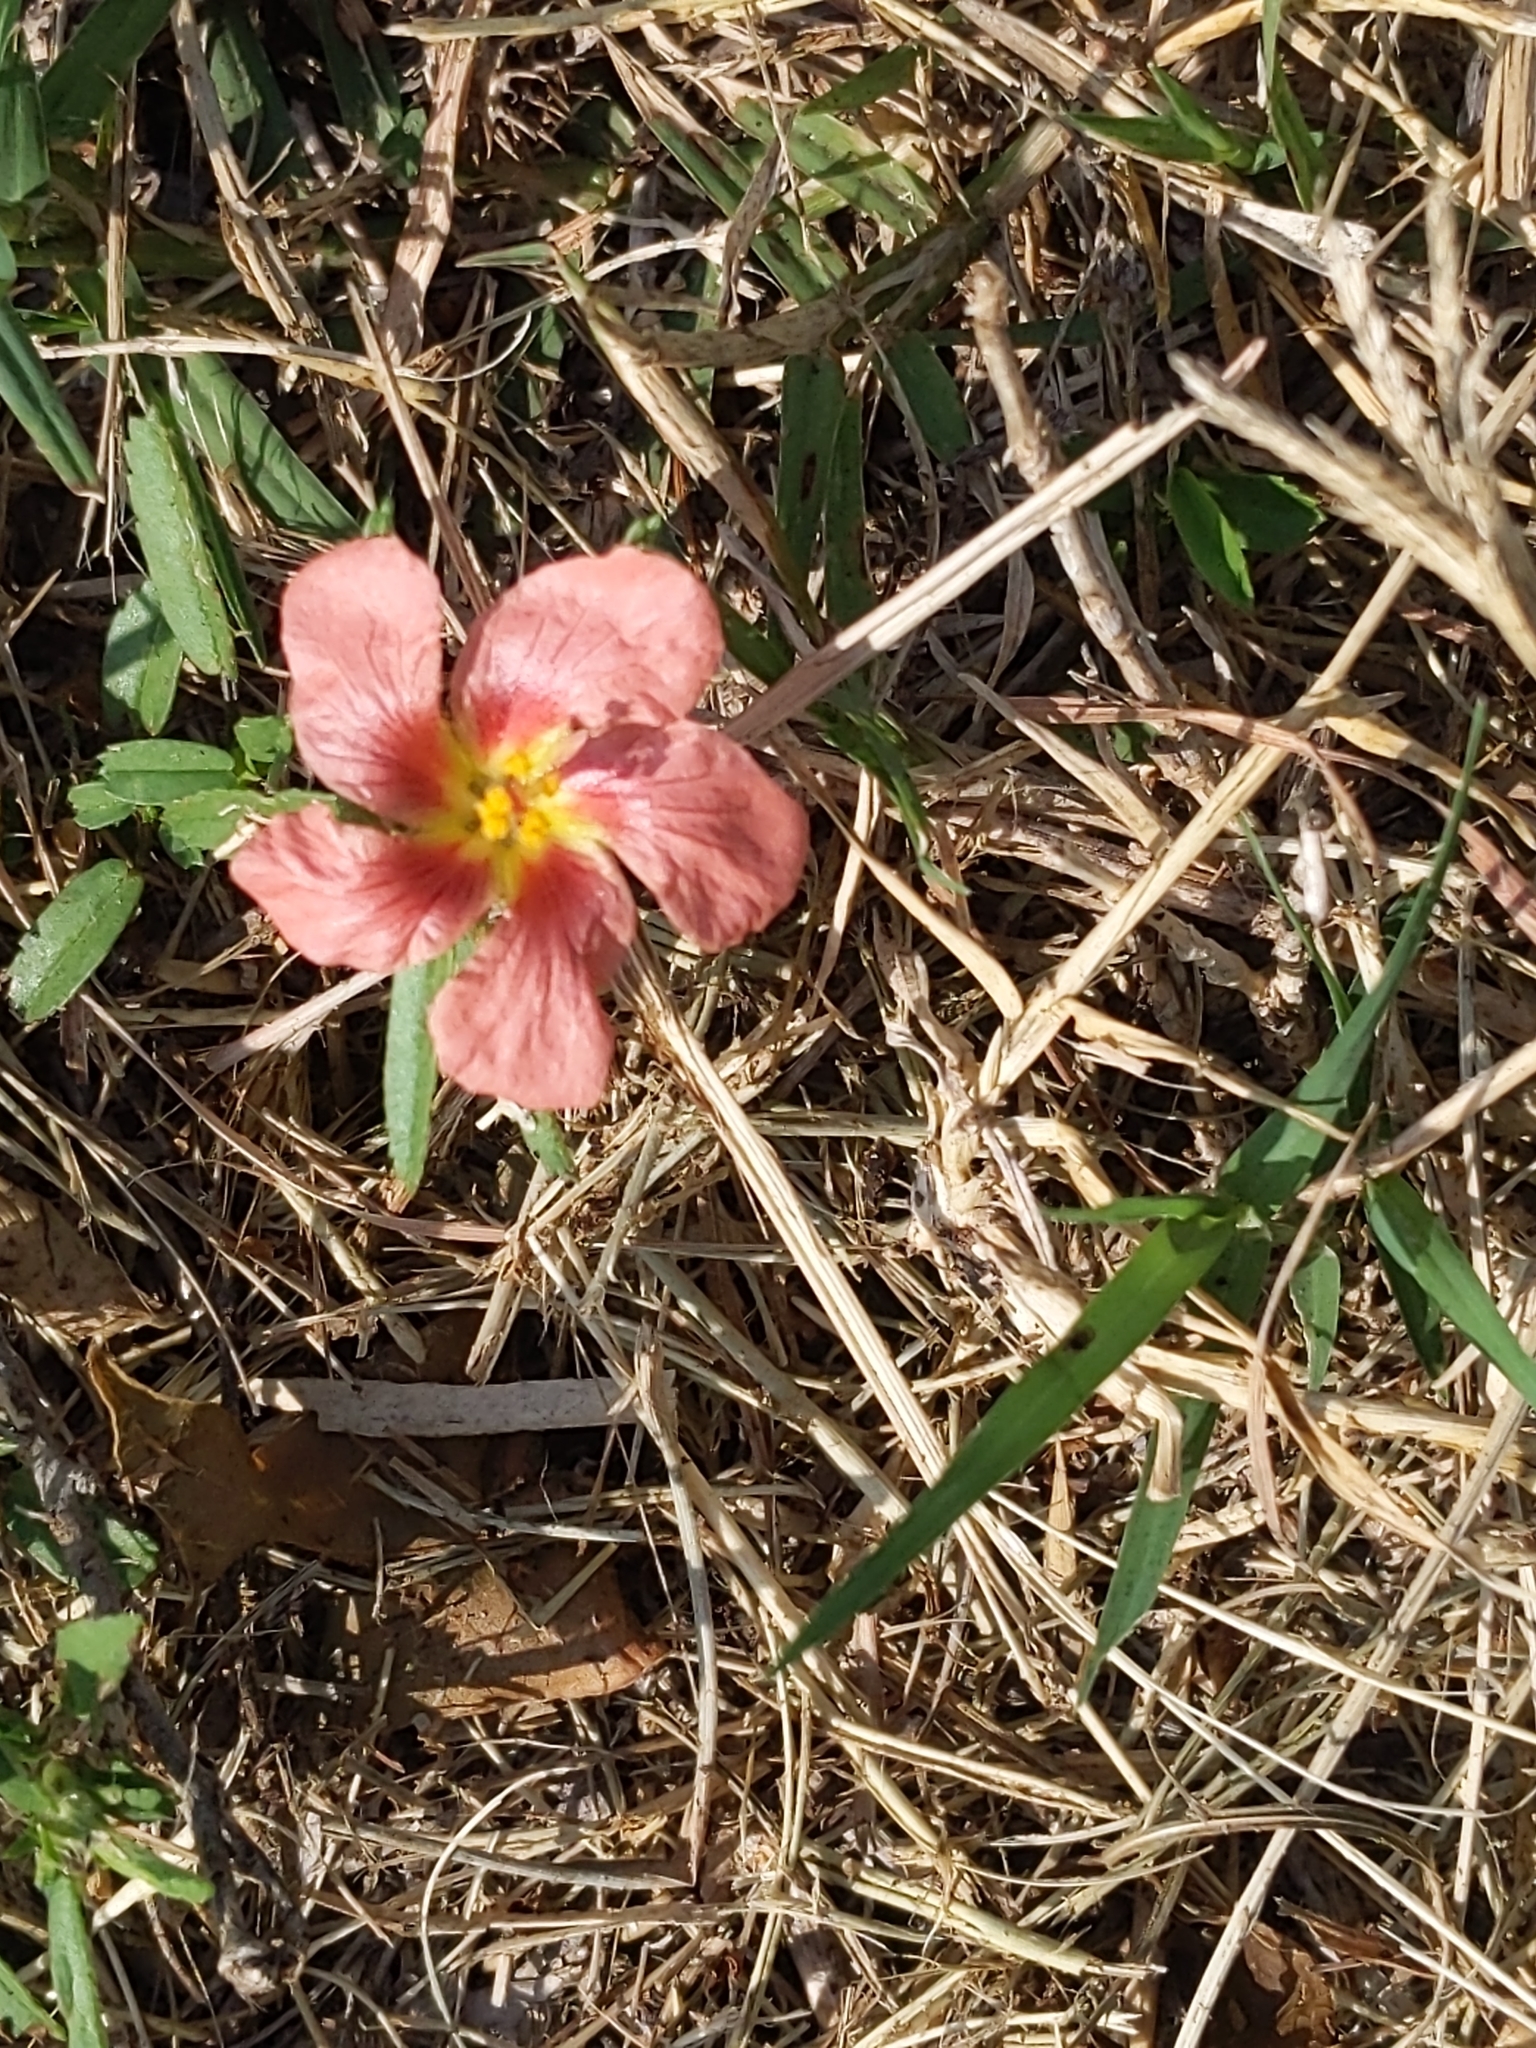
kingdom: Plantae
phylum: Tracheophyta
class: Magnoliopsida
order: Malvales
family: Malvaceae
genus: Sida
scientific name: Sida ciliaris
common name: Bracted fanpetals
